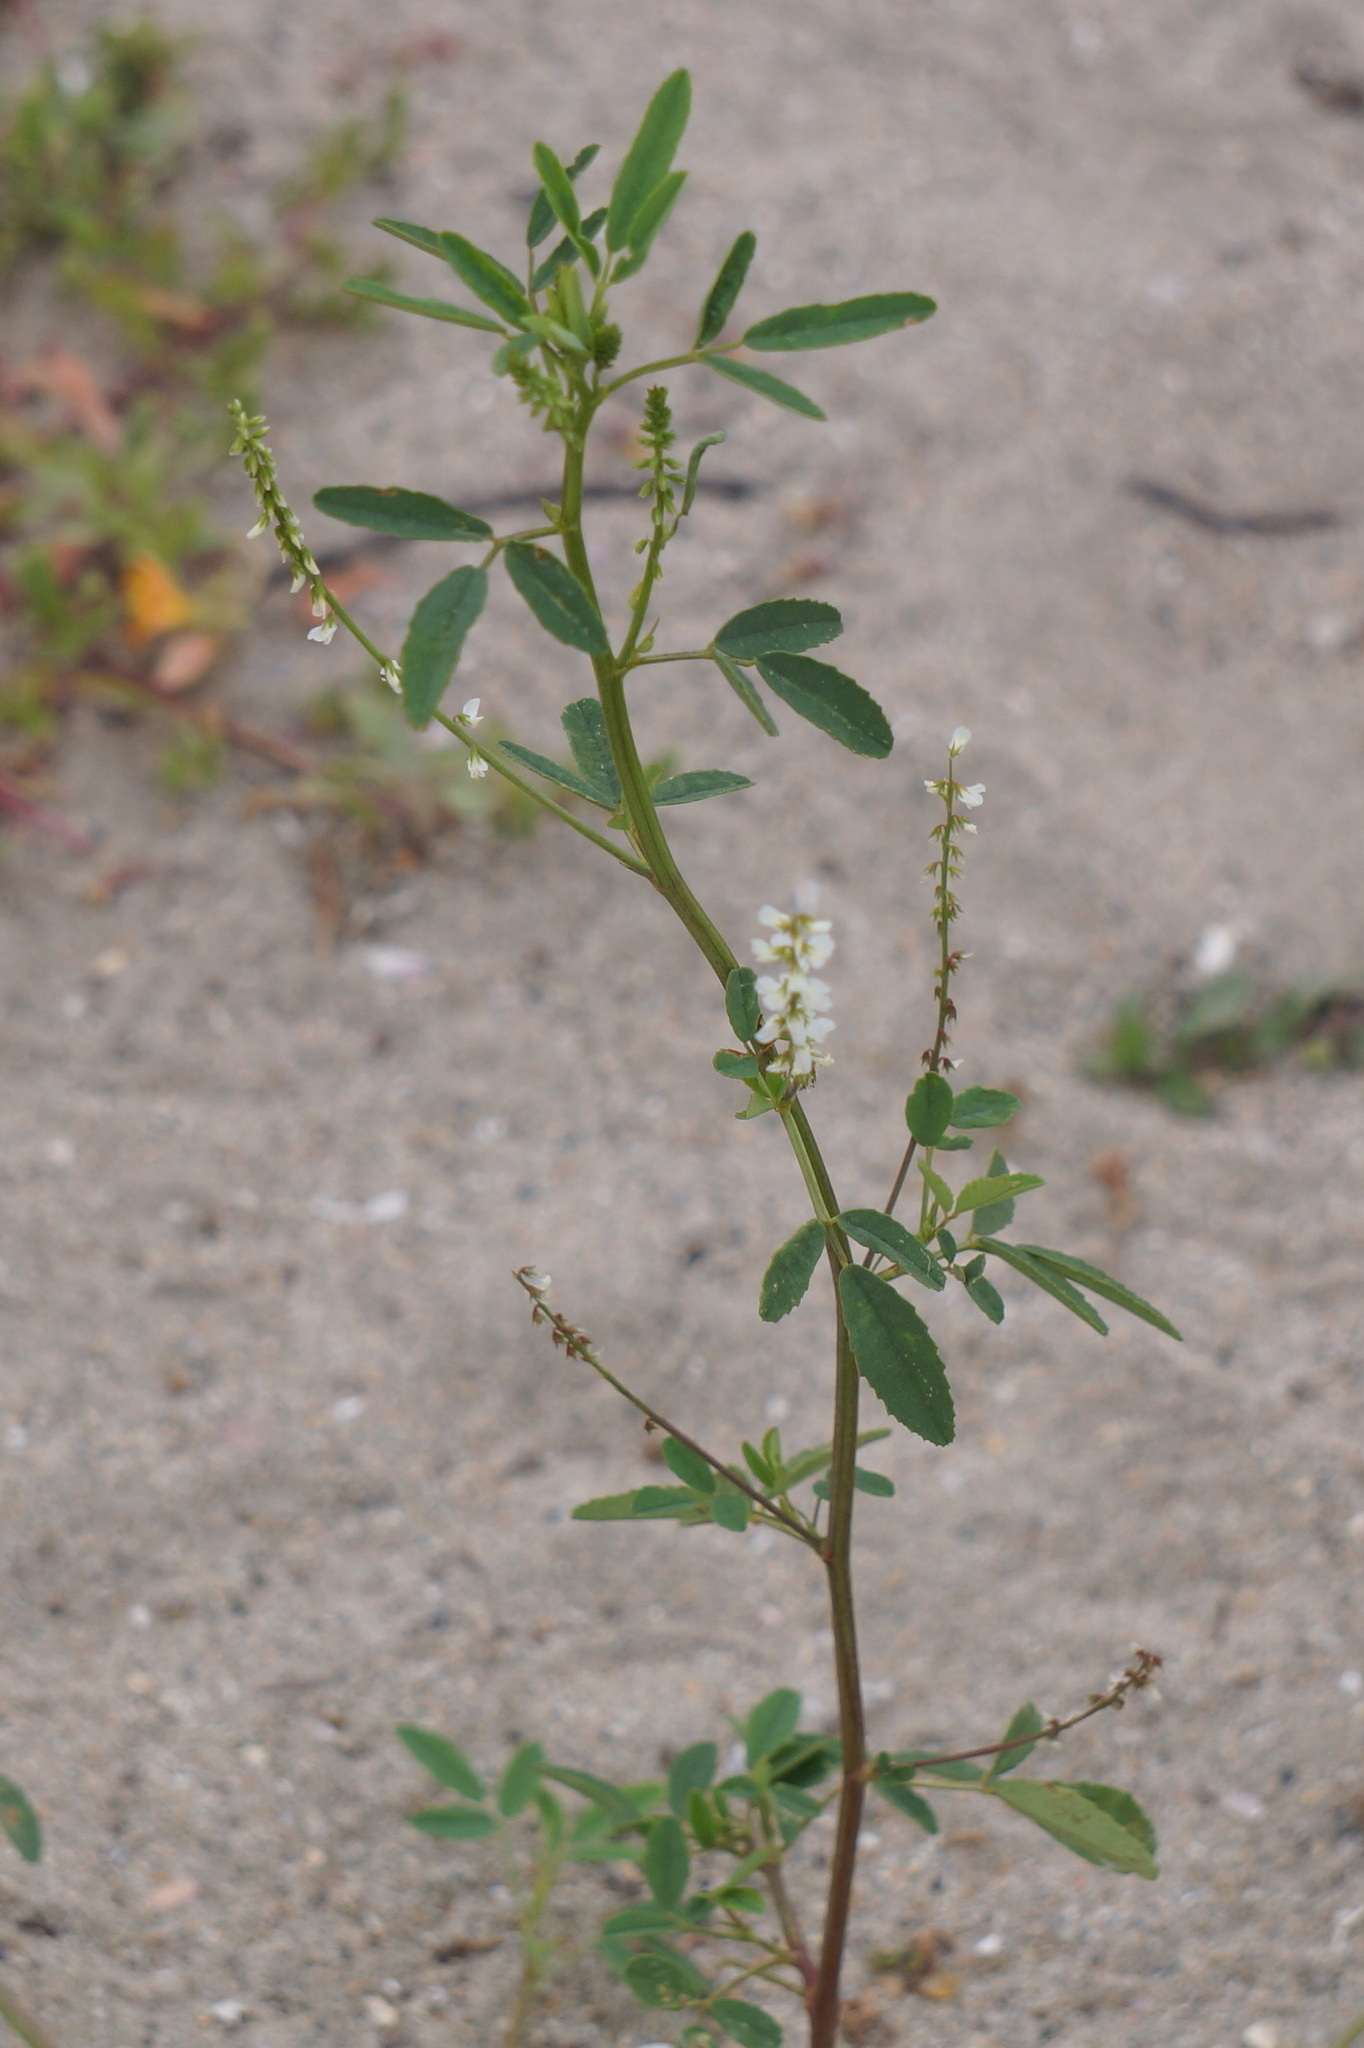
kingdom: Plantae
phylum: Tracheophyta
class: Magnoliopsida
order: Fabales
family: Fabaceae
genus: Melilotus
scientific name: Melilotus albus
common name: White melilot
